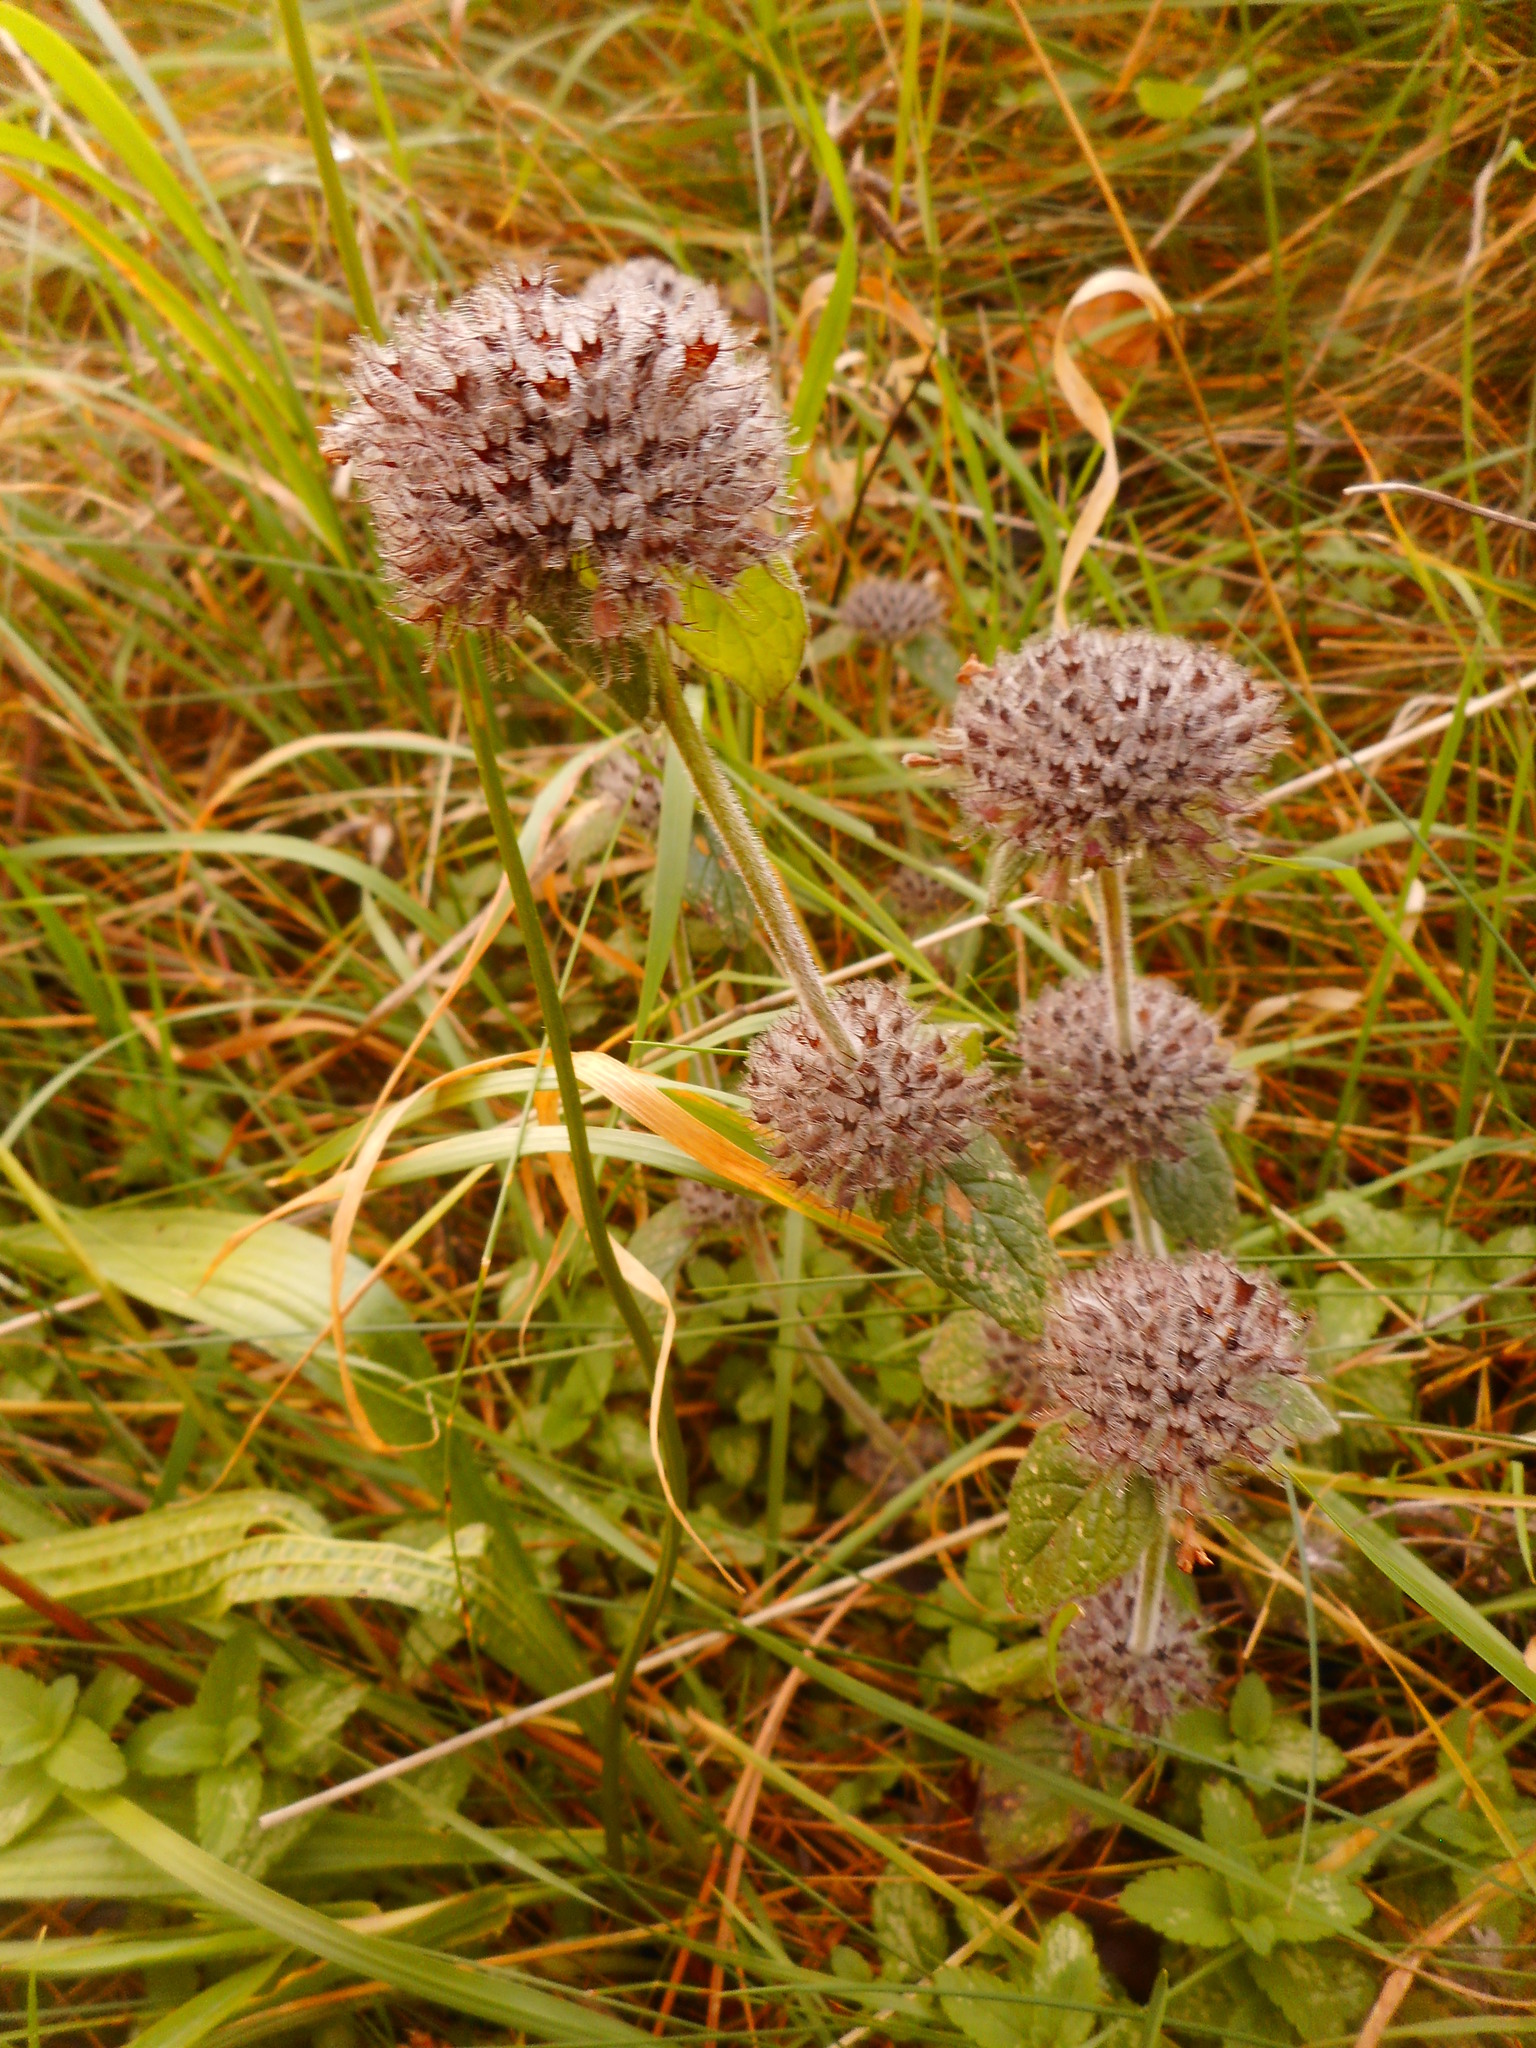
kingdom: Plantae
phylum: Tracheophyta
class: Magnoliopsida
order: Lamiales
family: Lamiaceae
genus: Clinopodium
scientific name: Clinopodium vulgare
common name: Wild basil
